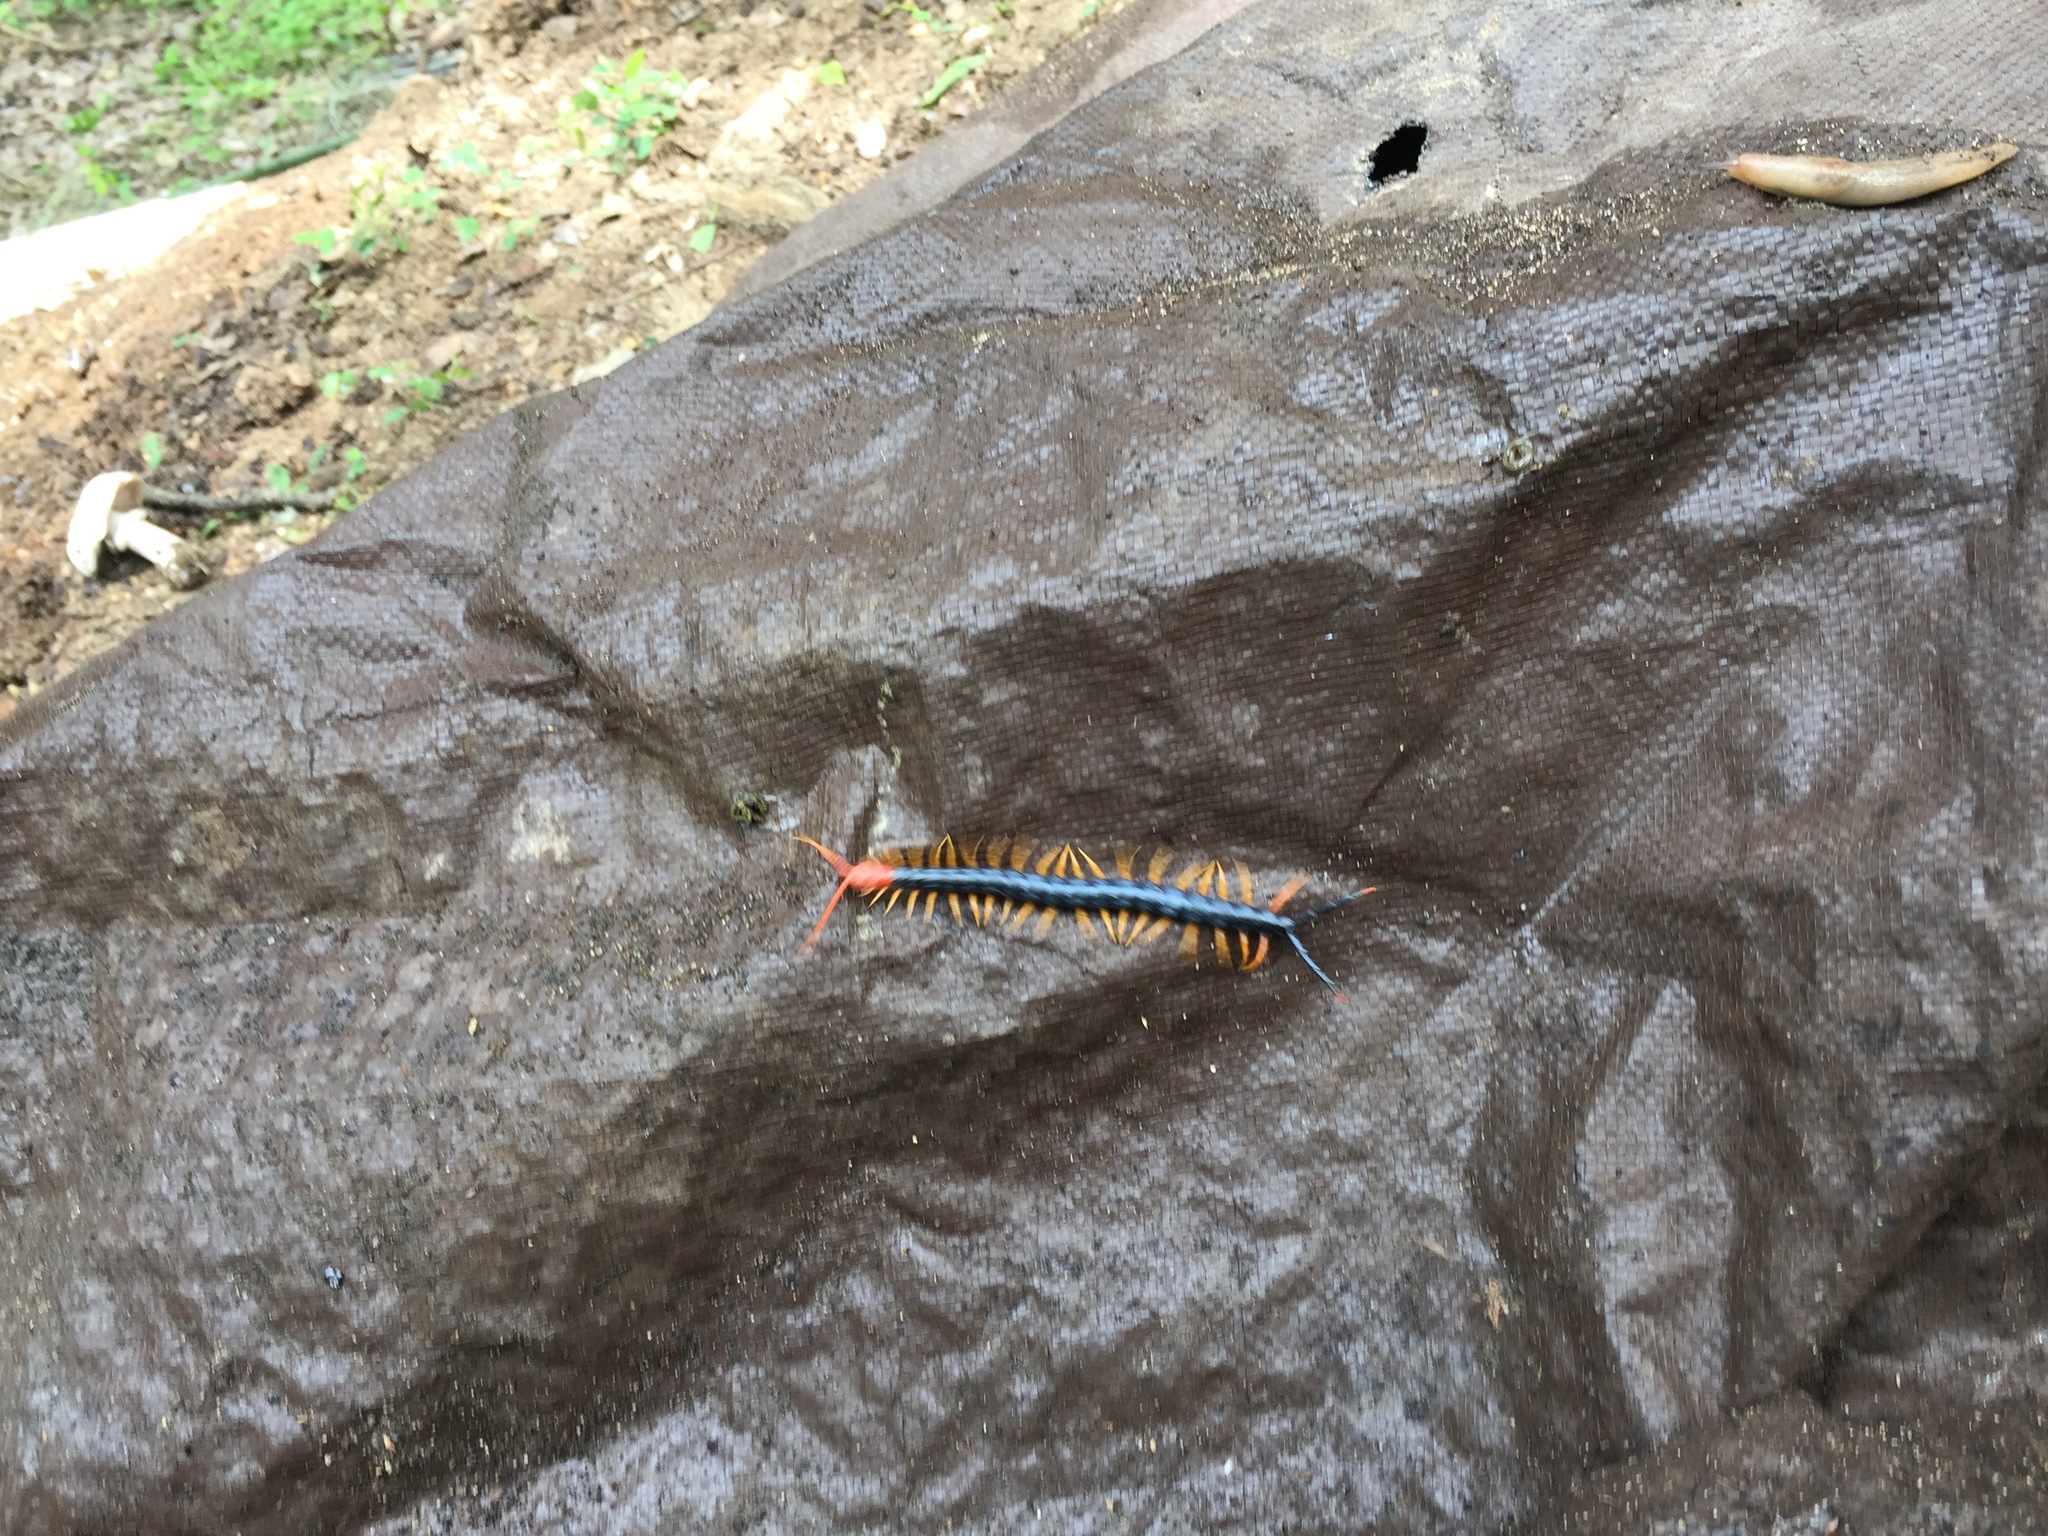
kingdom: Animalia
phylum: Arthropoda
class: Chilopoda
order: Scolopendromorpha
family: Scolopendridae
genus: Scolopendra
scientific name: Scolopendra heros
